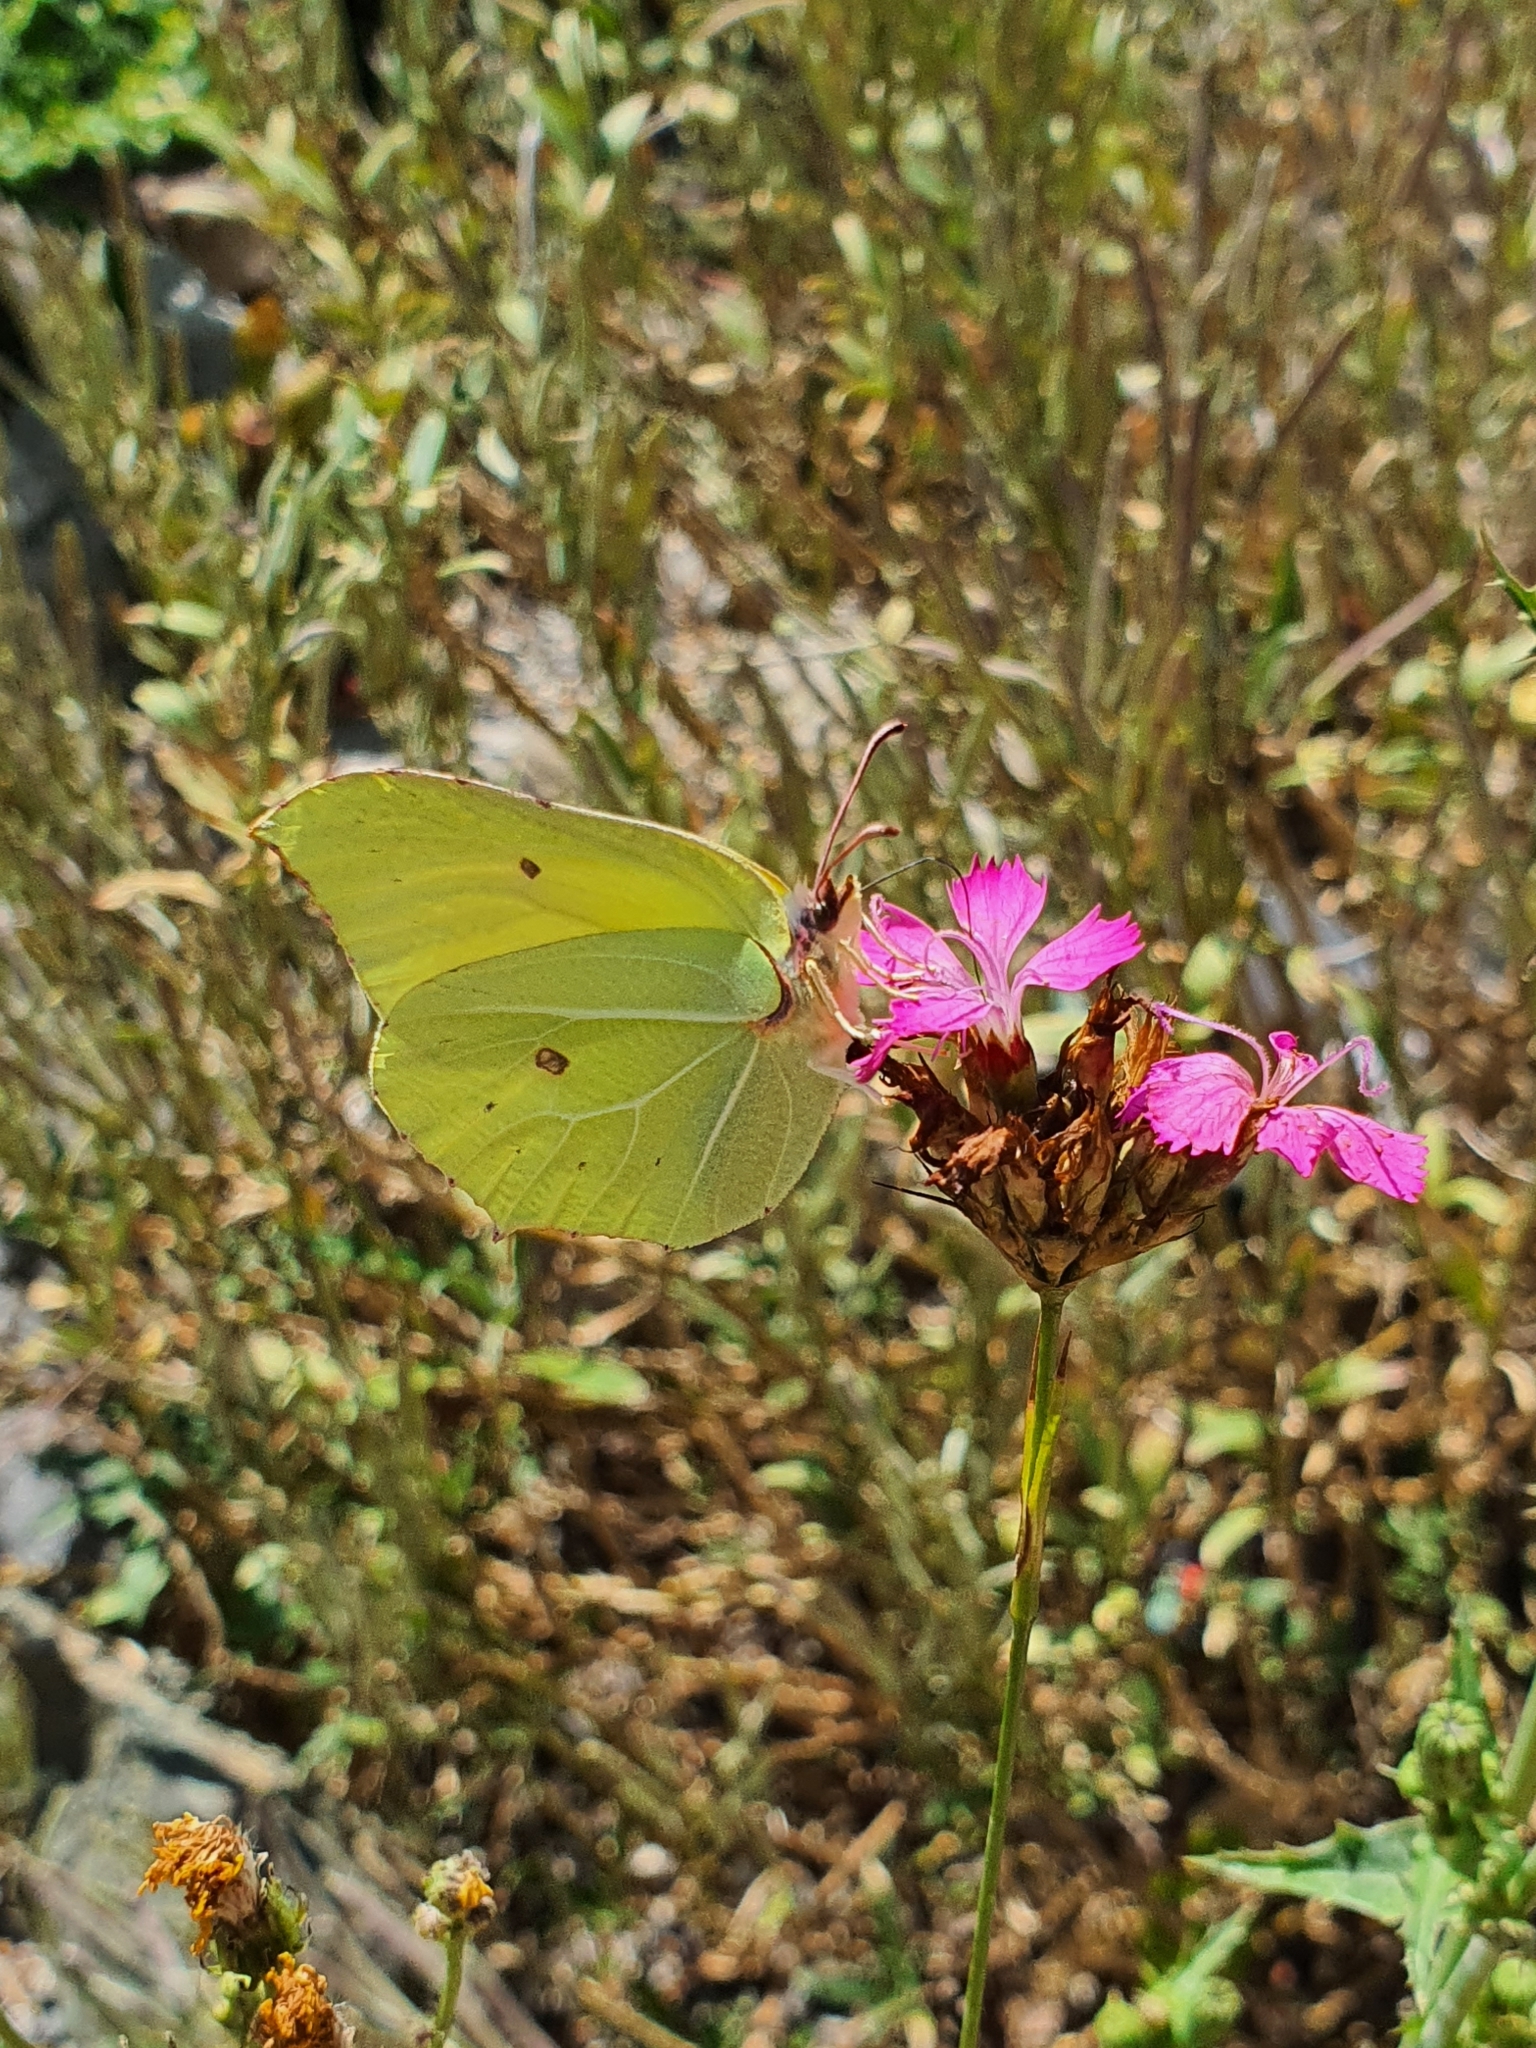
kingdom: Animalia
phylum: Arthropoda
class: Insecta
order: Lepidoptera
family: Pieridae
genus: Gonepteryx
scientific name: Gonepteryx rhamni
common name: Brimstone
